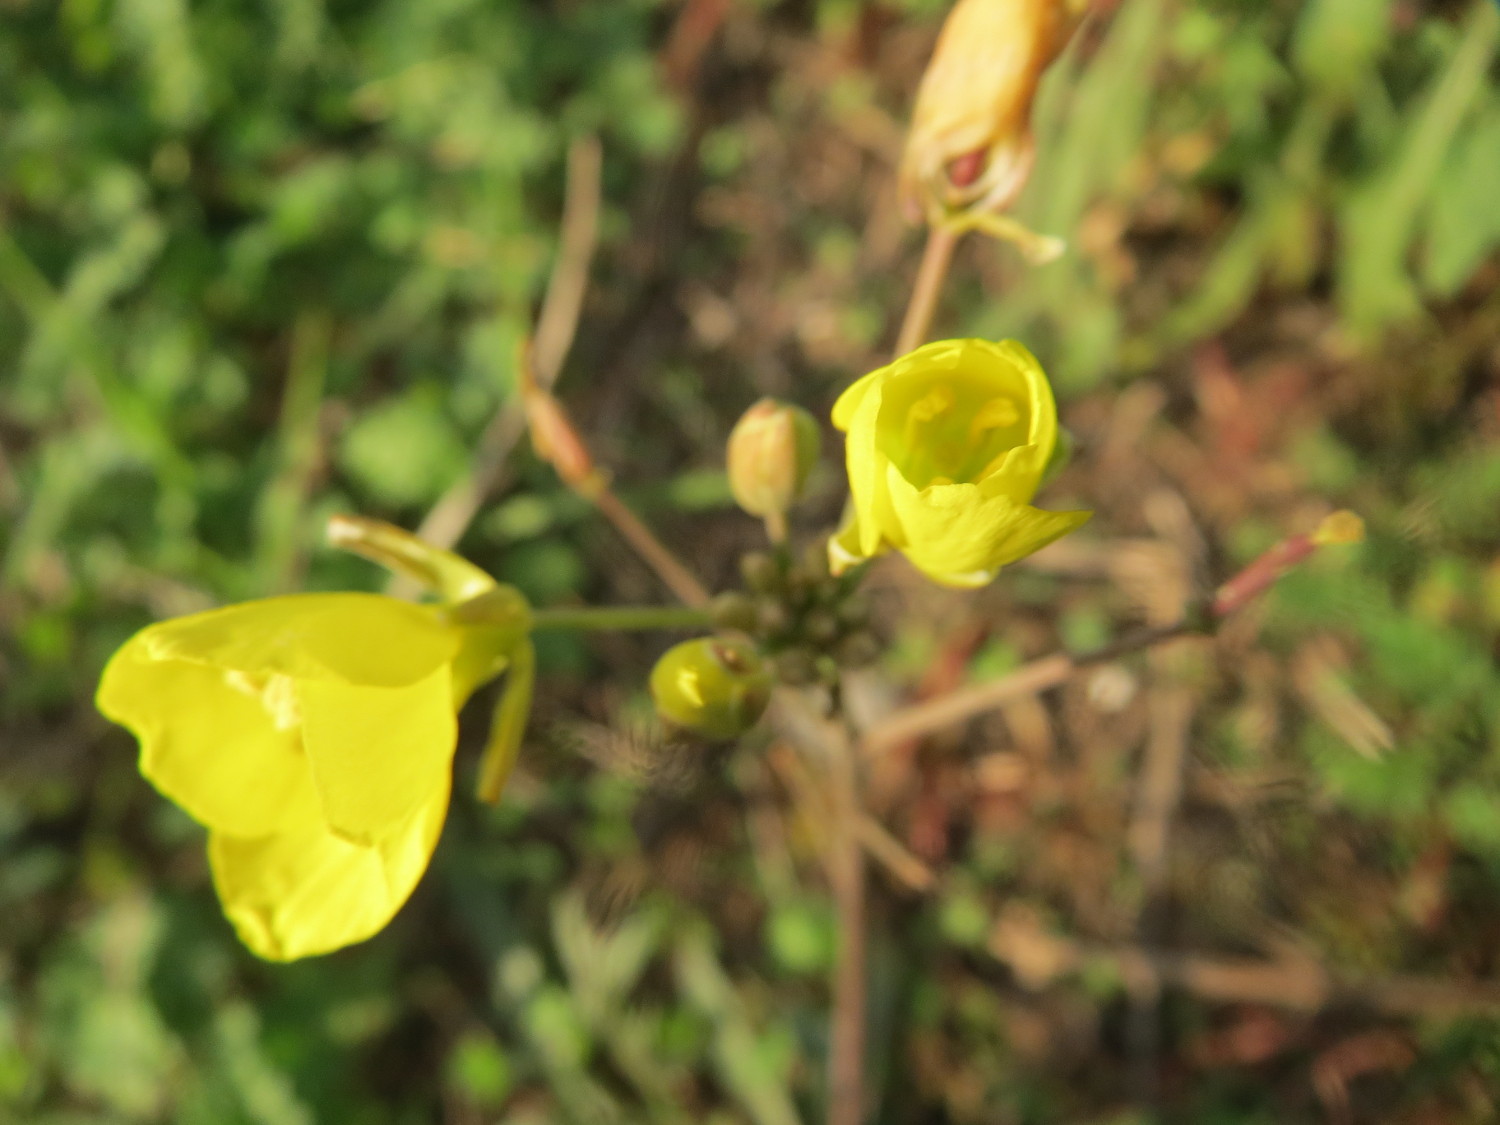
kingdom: Plantae
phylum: Tracheophyta
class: Magnoliopsida
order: Brassicales
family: Brassicaceae
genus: Diplotaxis
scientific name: Diplotaxis tenuifolia
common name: Perennial wall-rocket
